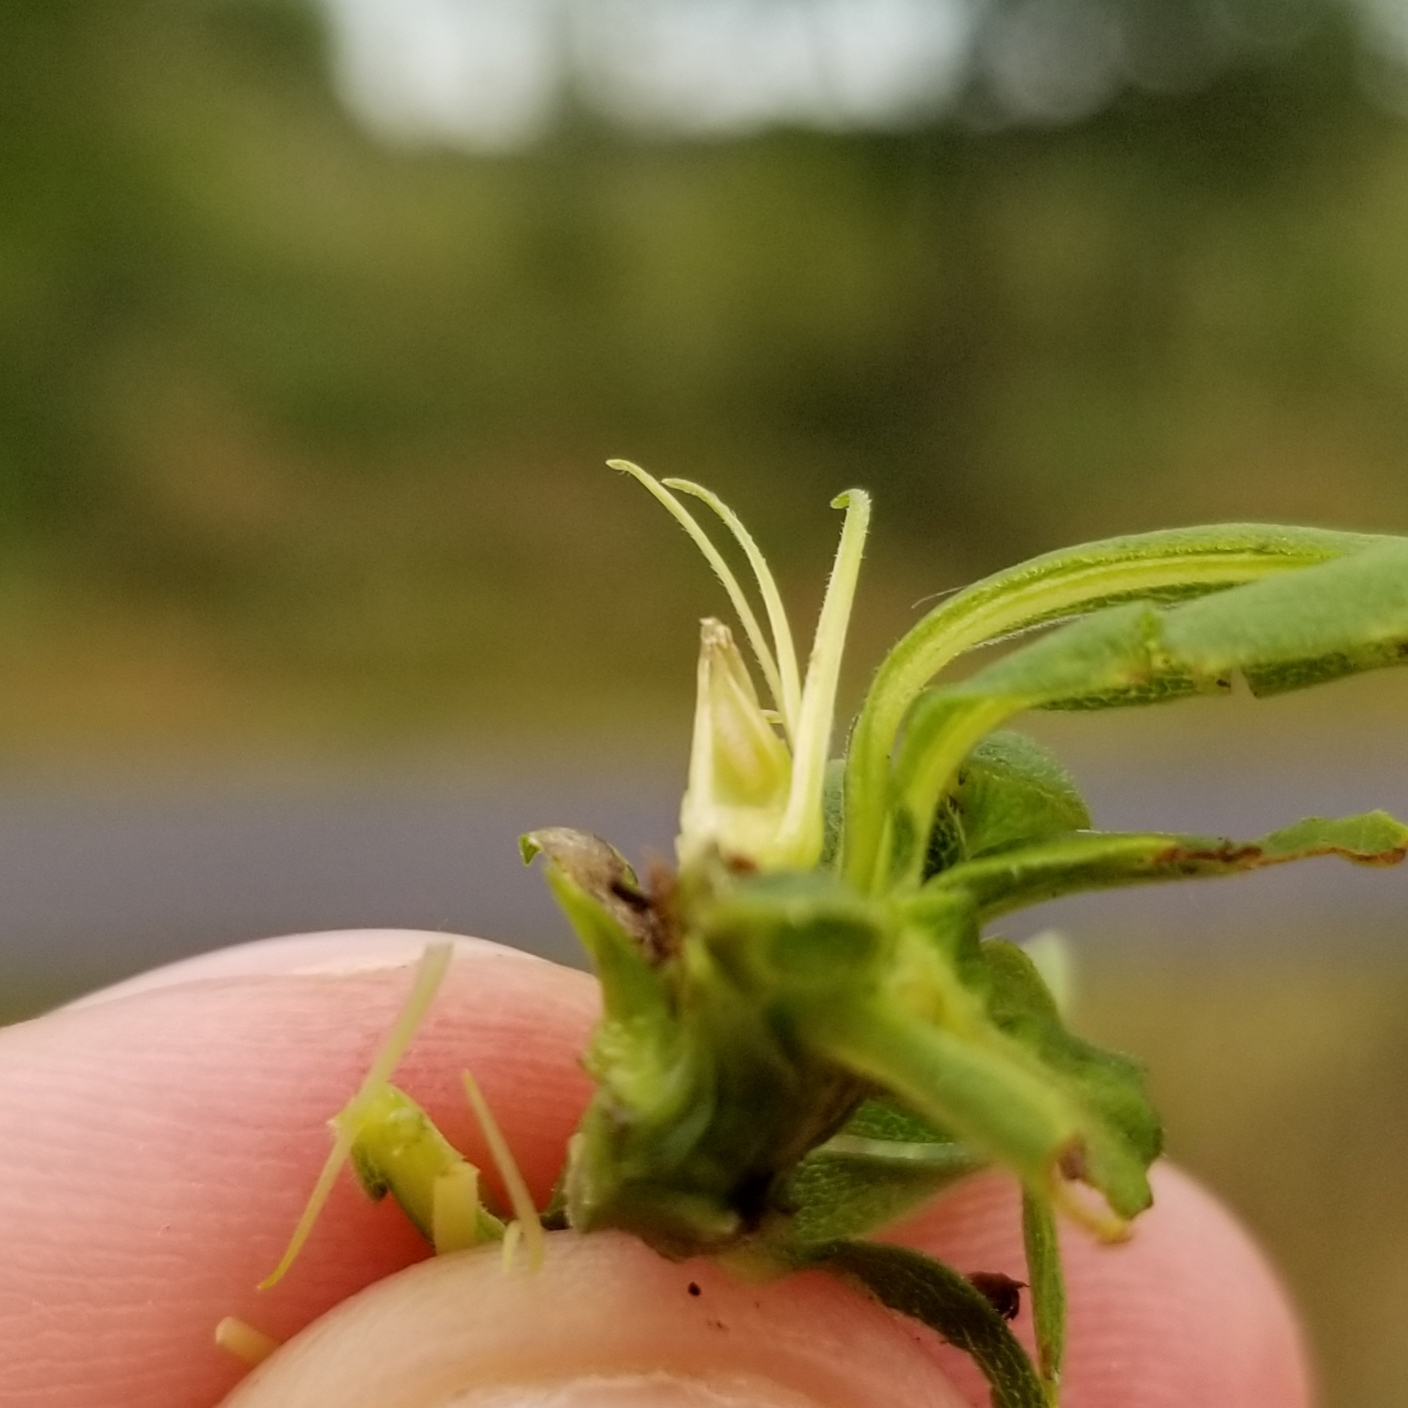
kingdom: Animalia
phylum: Arthropoda
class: Insecta
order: Diptera
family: Cecidomyiidae
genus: Rhopalomyia
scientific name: Rhopalomyia solidaginis
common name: Goldenrod bunch gall midge
